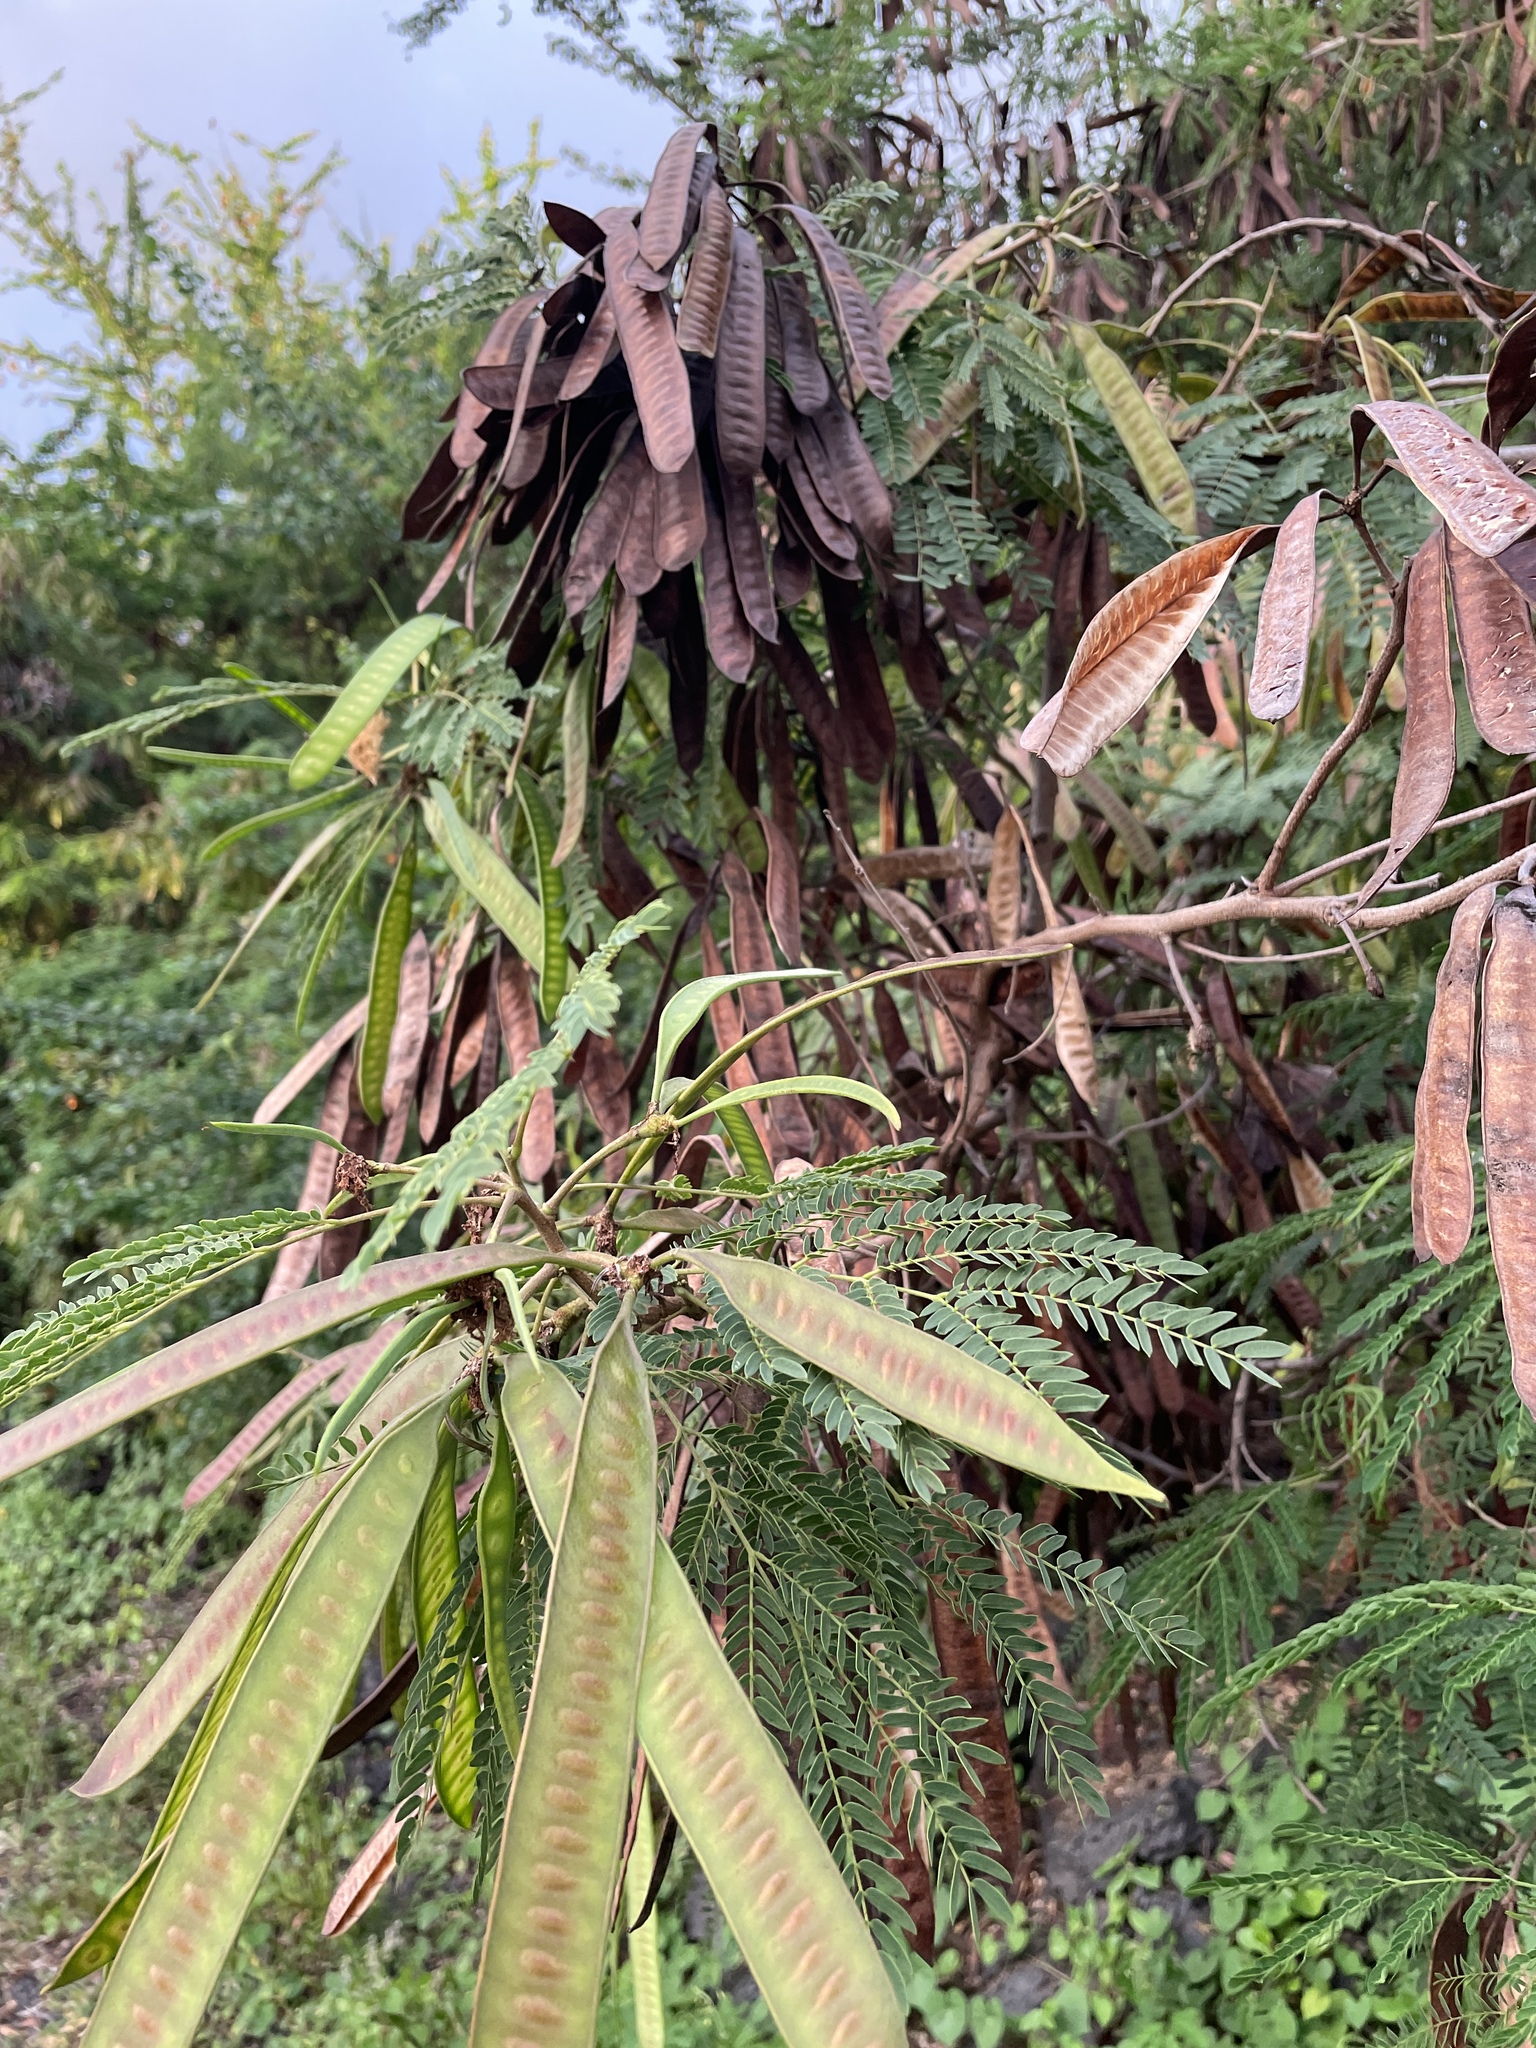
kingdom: Plantae
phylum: Tracheophyta
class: Magnoliopsida
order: Fabales
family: Fabaceae
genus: Leucaena
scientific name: Leucaena leucocephala
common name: White leadtree
